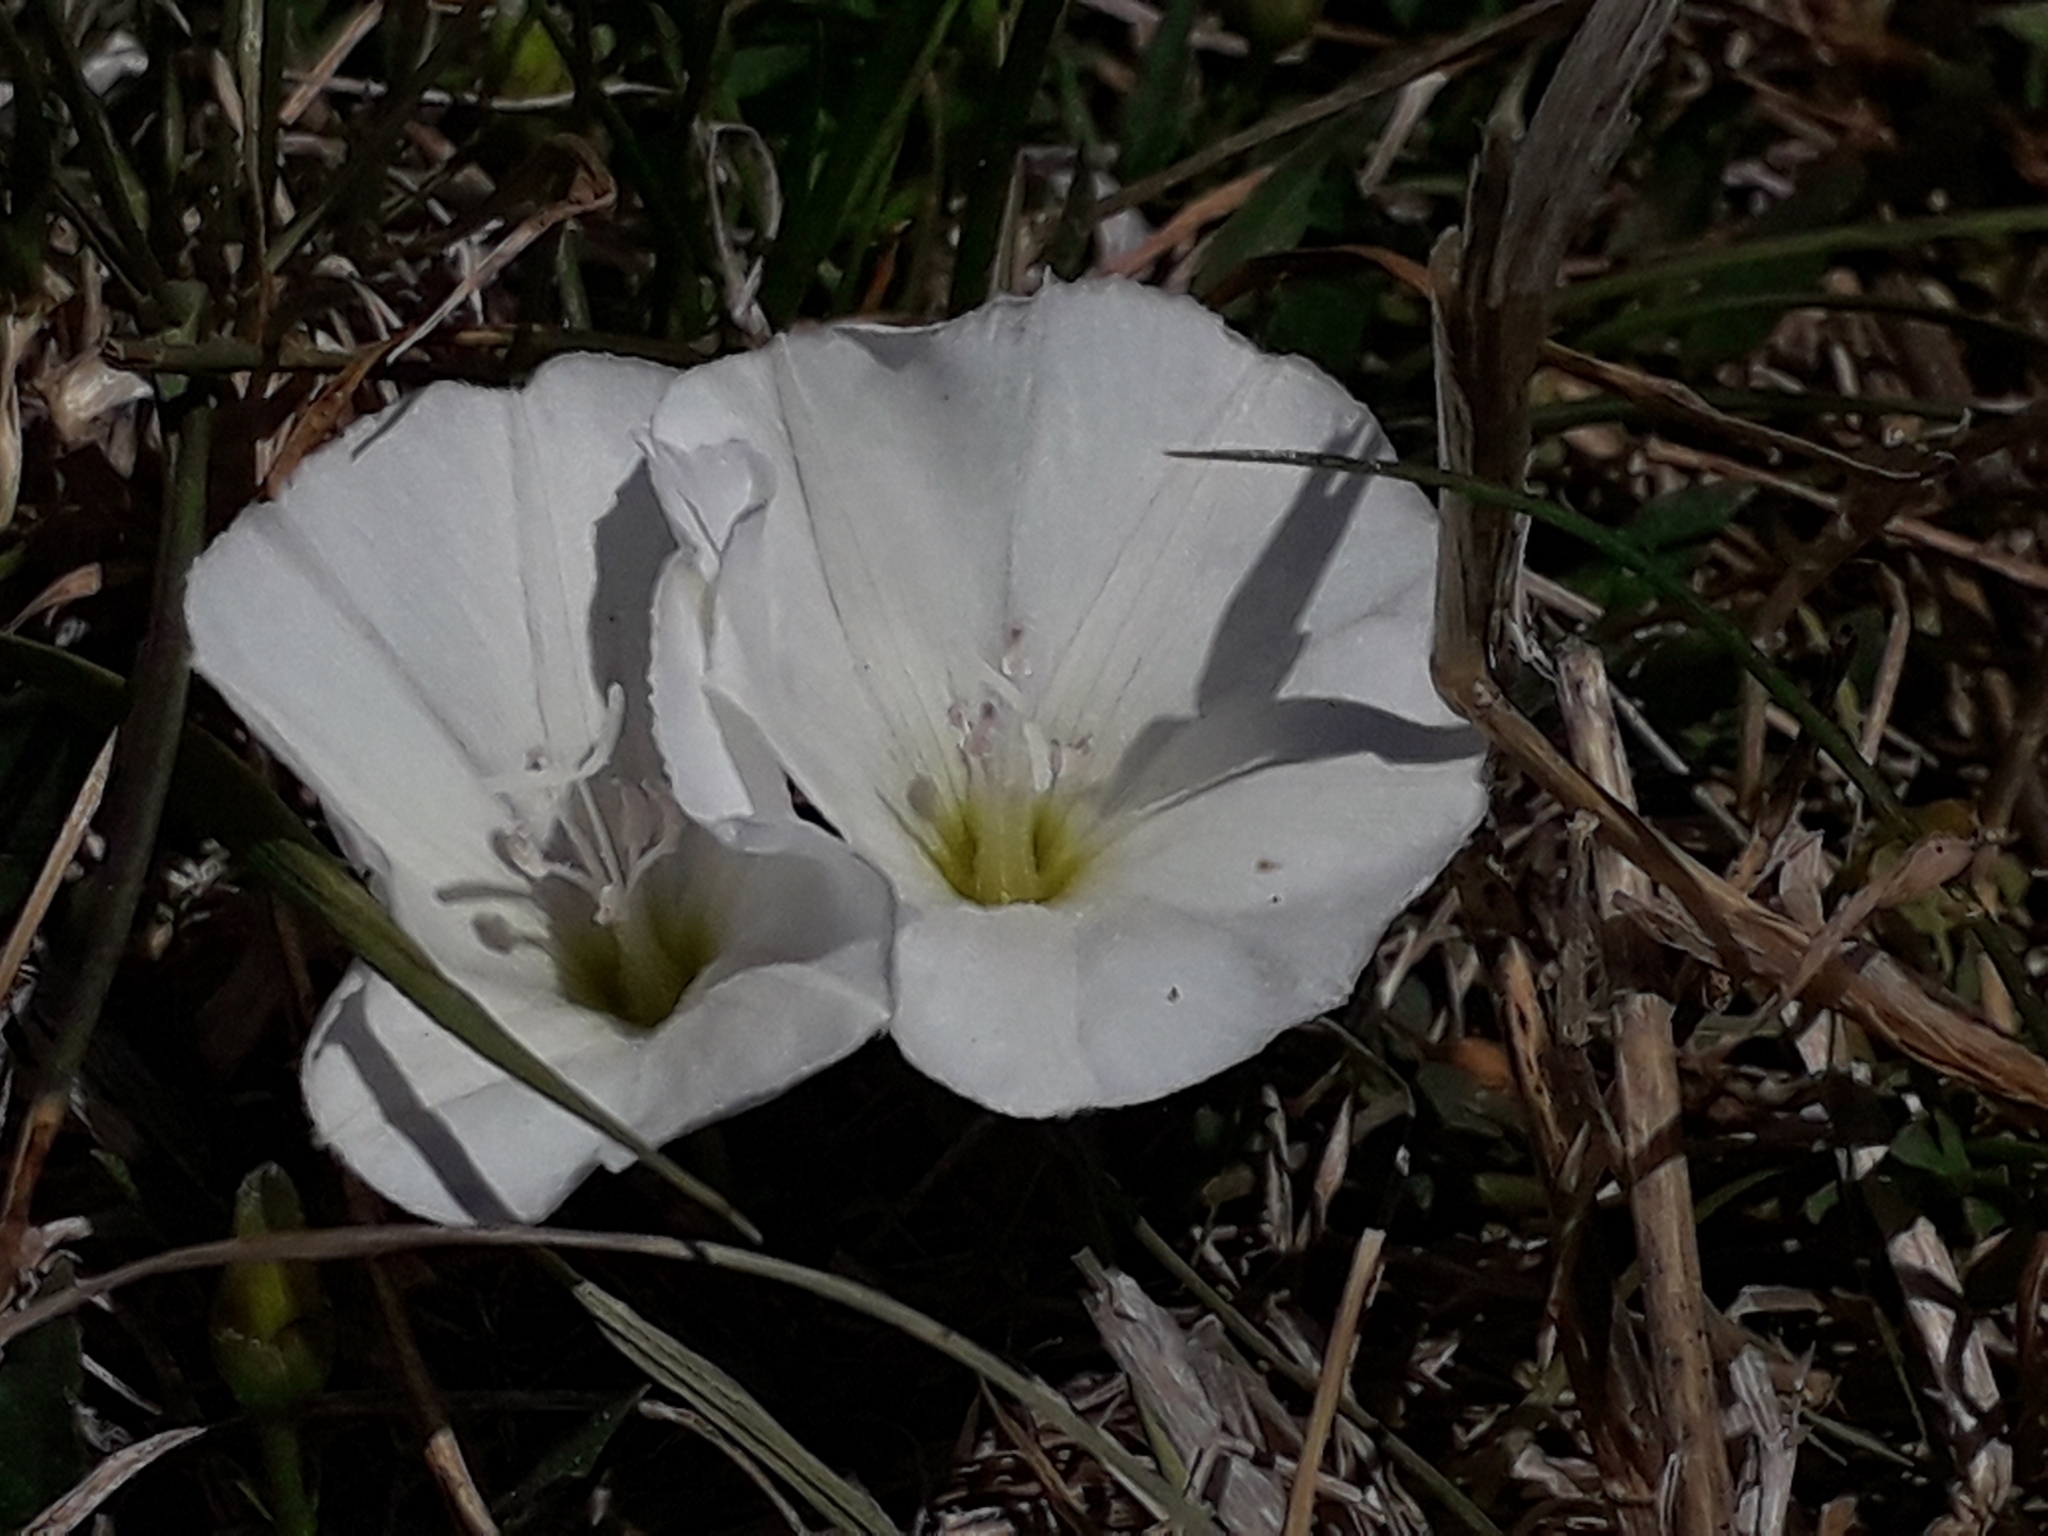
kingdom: Plantae
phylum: Tracheophyta
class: Magnoliopsida
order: Solanales
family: Convolvulaceae
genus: Convolvulus
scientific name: Convolvulus arvensis
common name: Field bindweed
